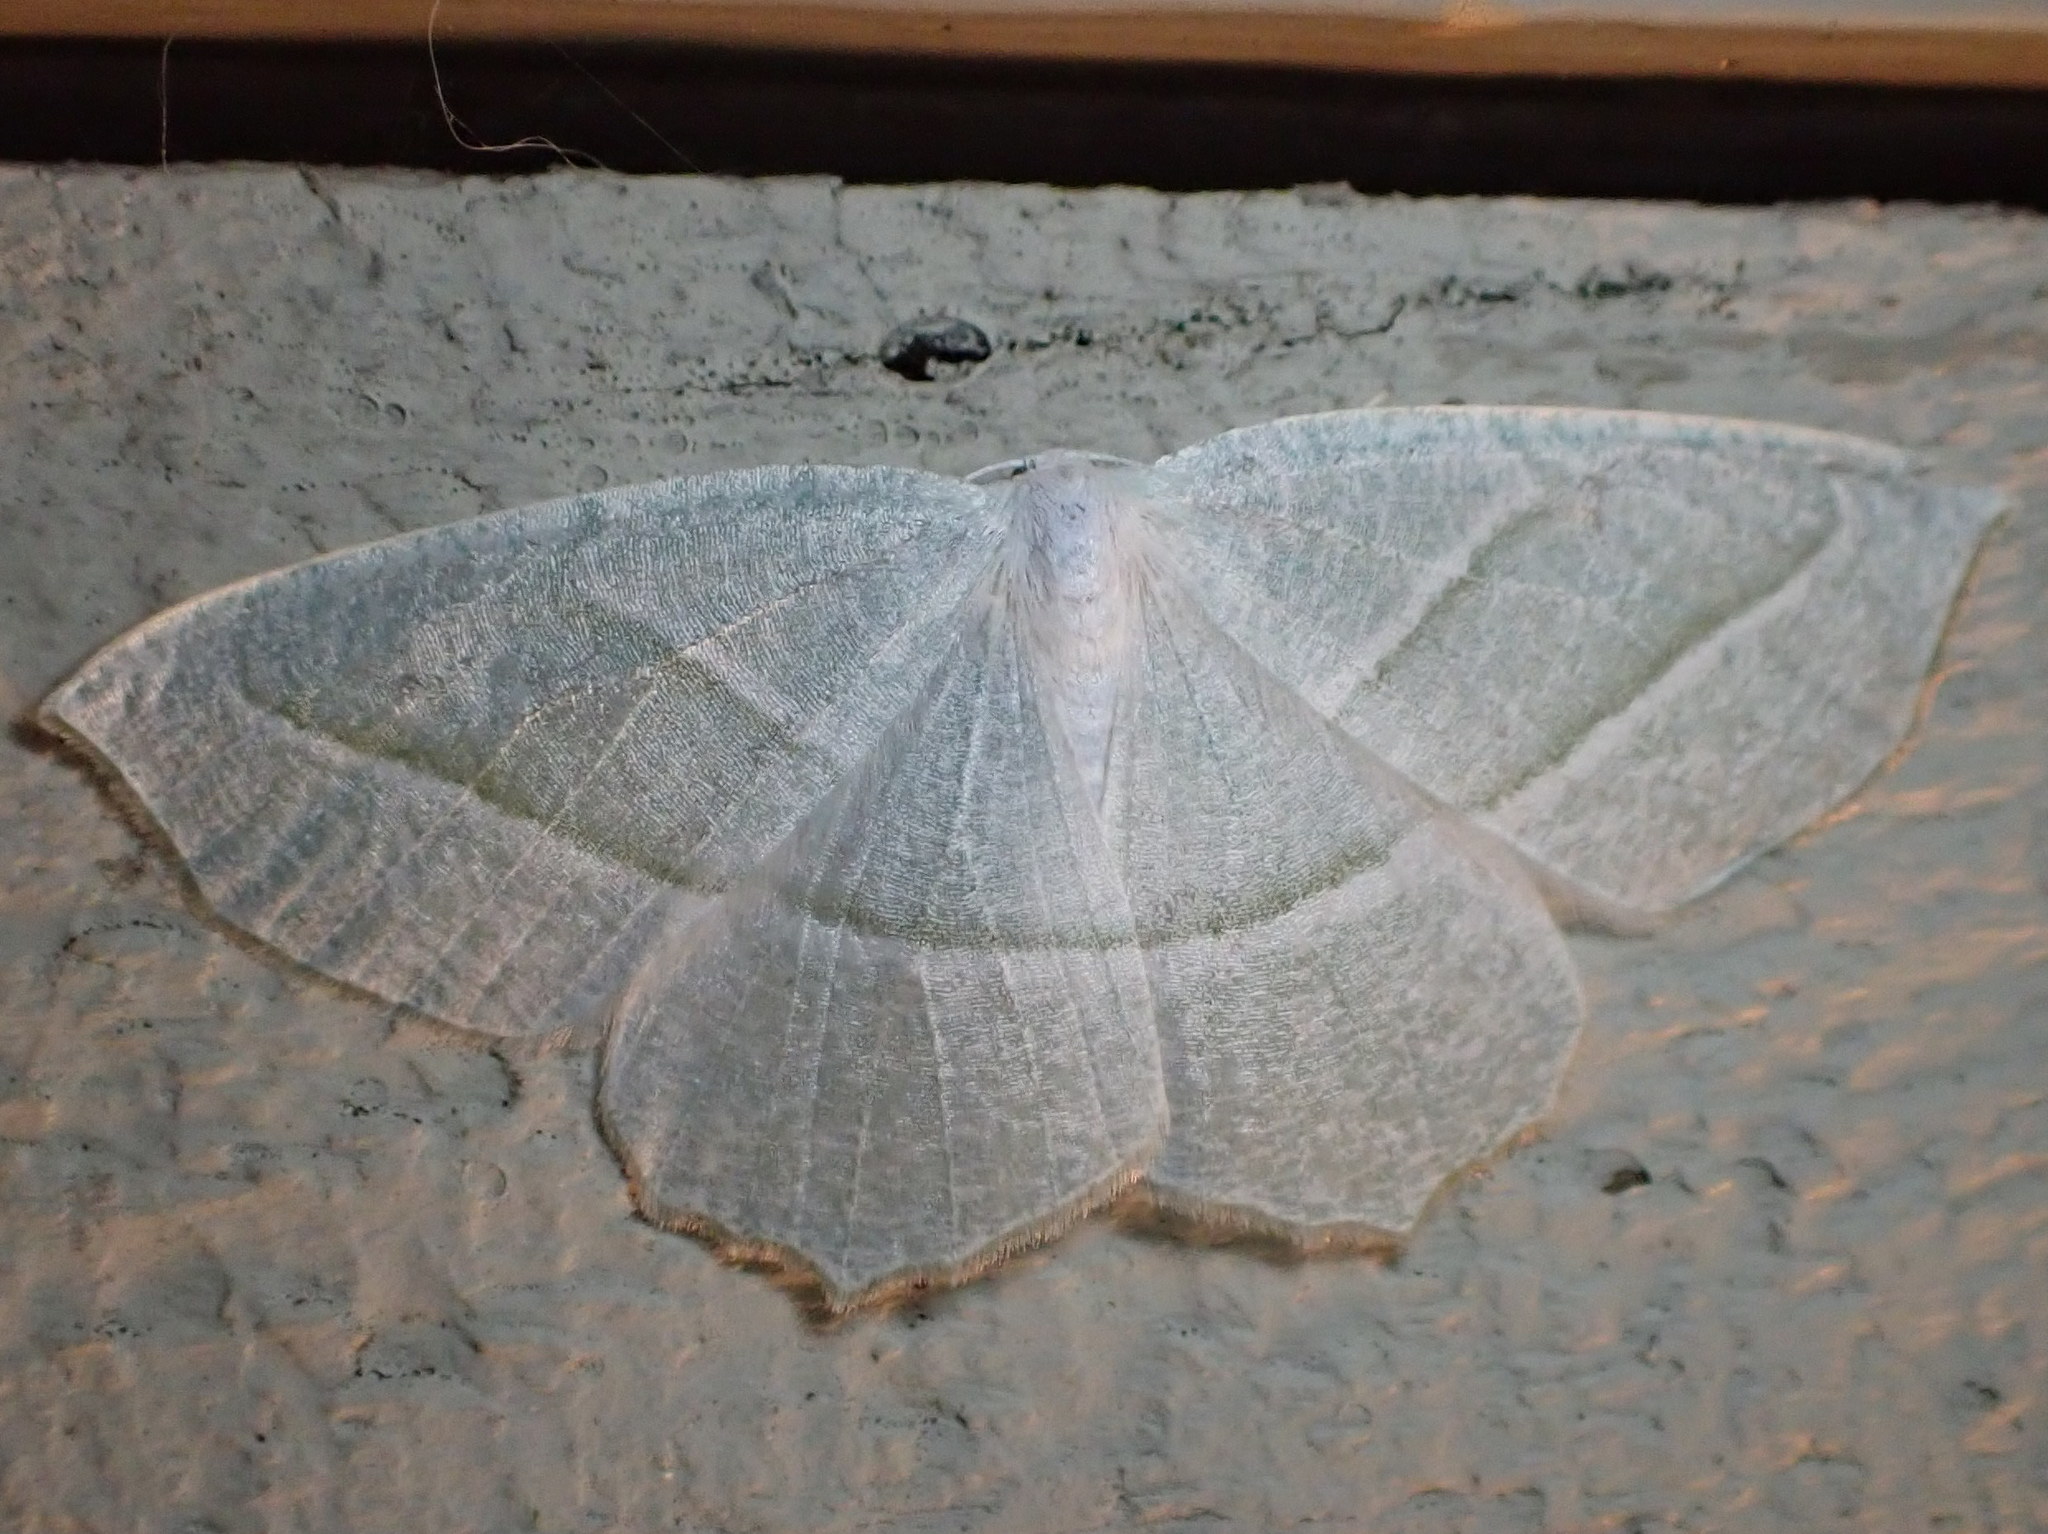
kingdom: Animalia
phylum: Arthropoda
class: Insecta
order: Lepidoptera
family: Geometridae
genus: Campaea
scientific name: Campaea perlata
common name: Fringed looper
